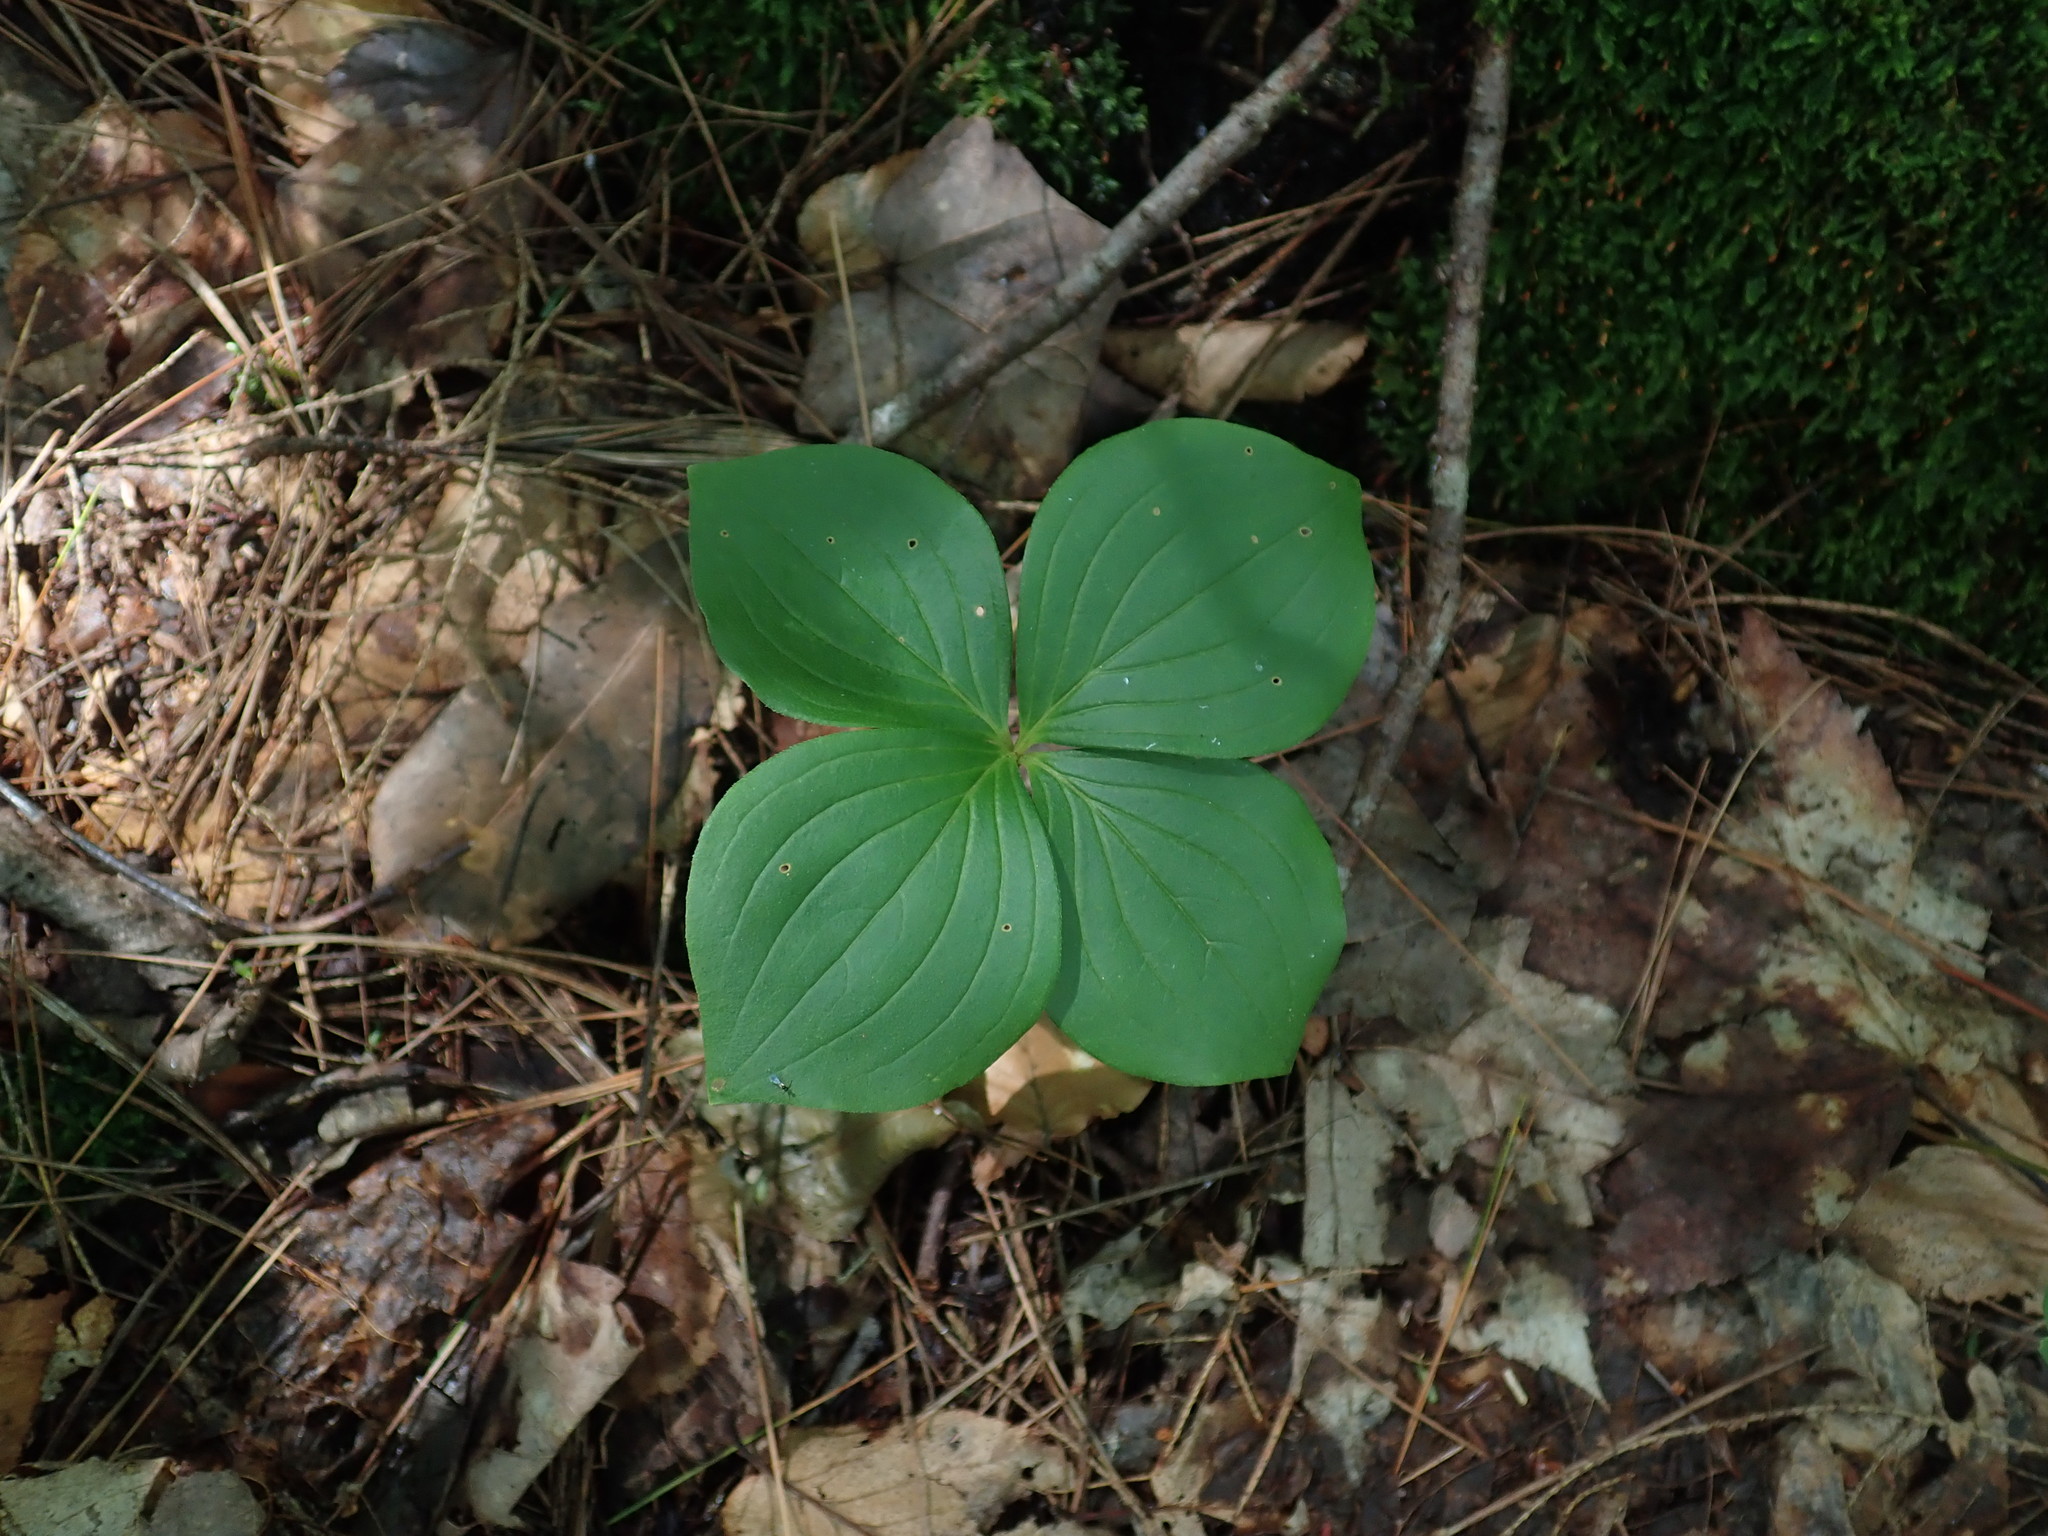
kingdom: Plantae
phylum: Tracheophyta
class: Magnoliopsida
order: Cornales
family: Cornaceae
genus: Cornus
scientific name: Cornus canadensis
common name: Creeping dogwood
